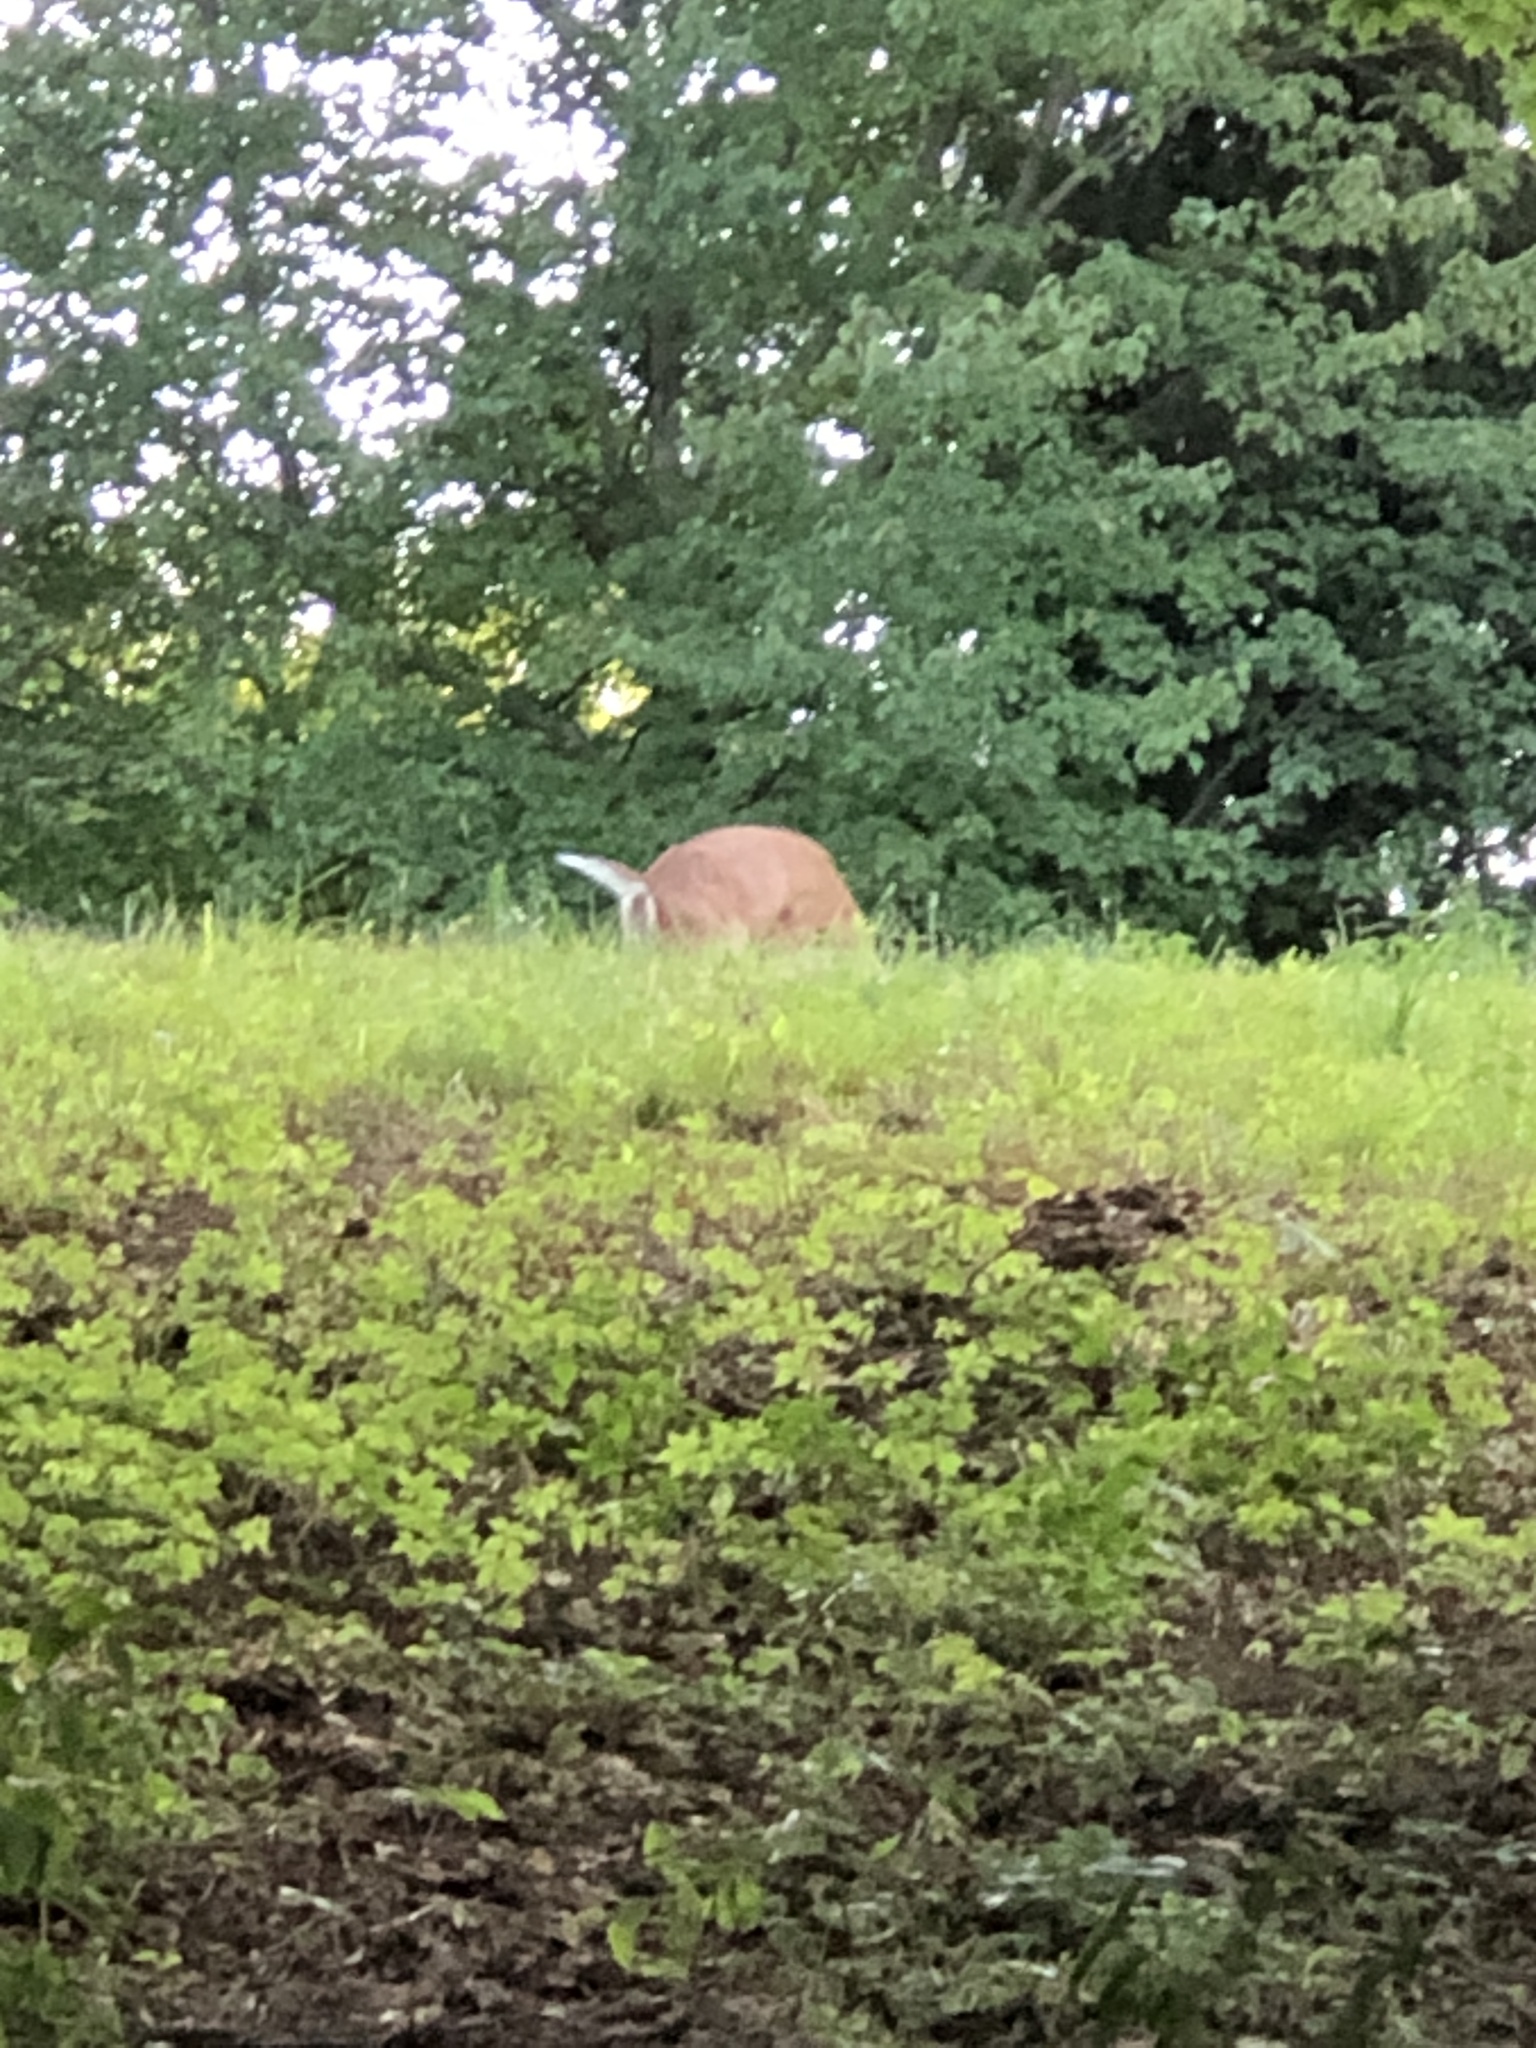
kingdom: Animalia
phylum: Chordata
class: Mammalia
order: Artiodactyla
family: Cervidae
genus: Odocoileus
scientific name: Odocoileus virginianus
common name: White-tailed deer
